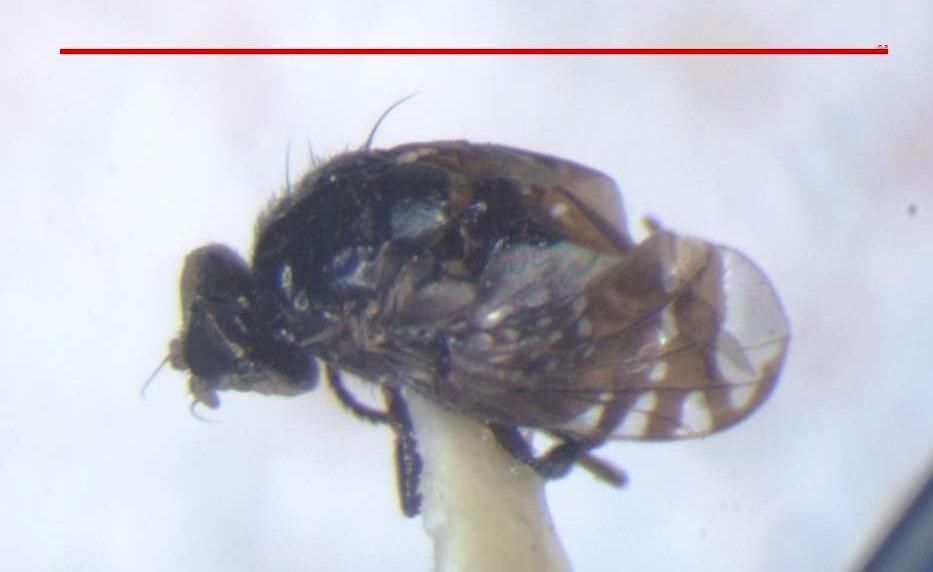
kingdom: Animalia
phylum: Arthropoda
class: Insecta
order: Diptera
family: Platystomatidae
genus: Amphicnephes
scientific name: Amphicnephes stellatus
